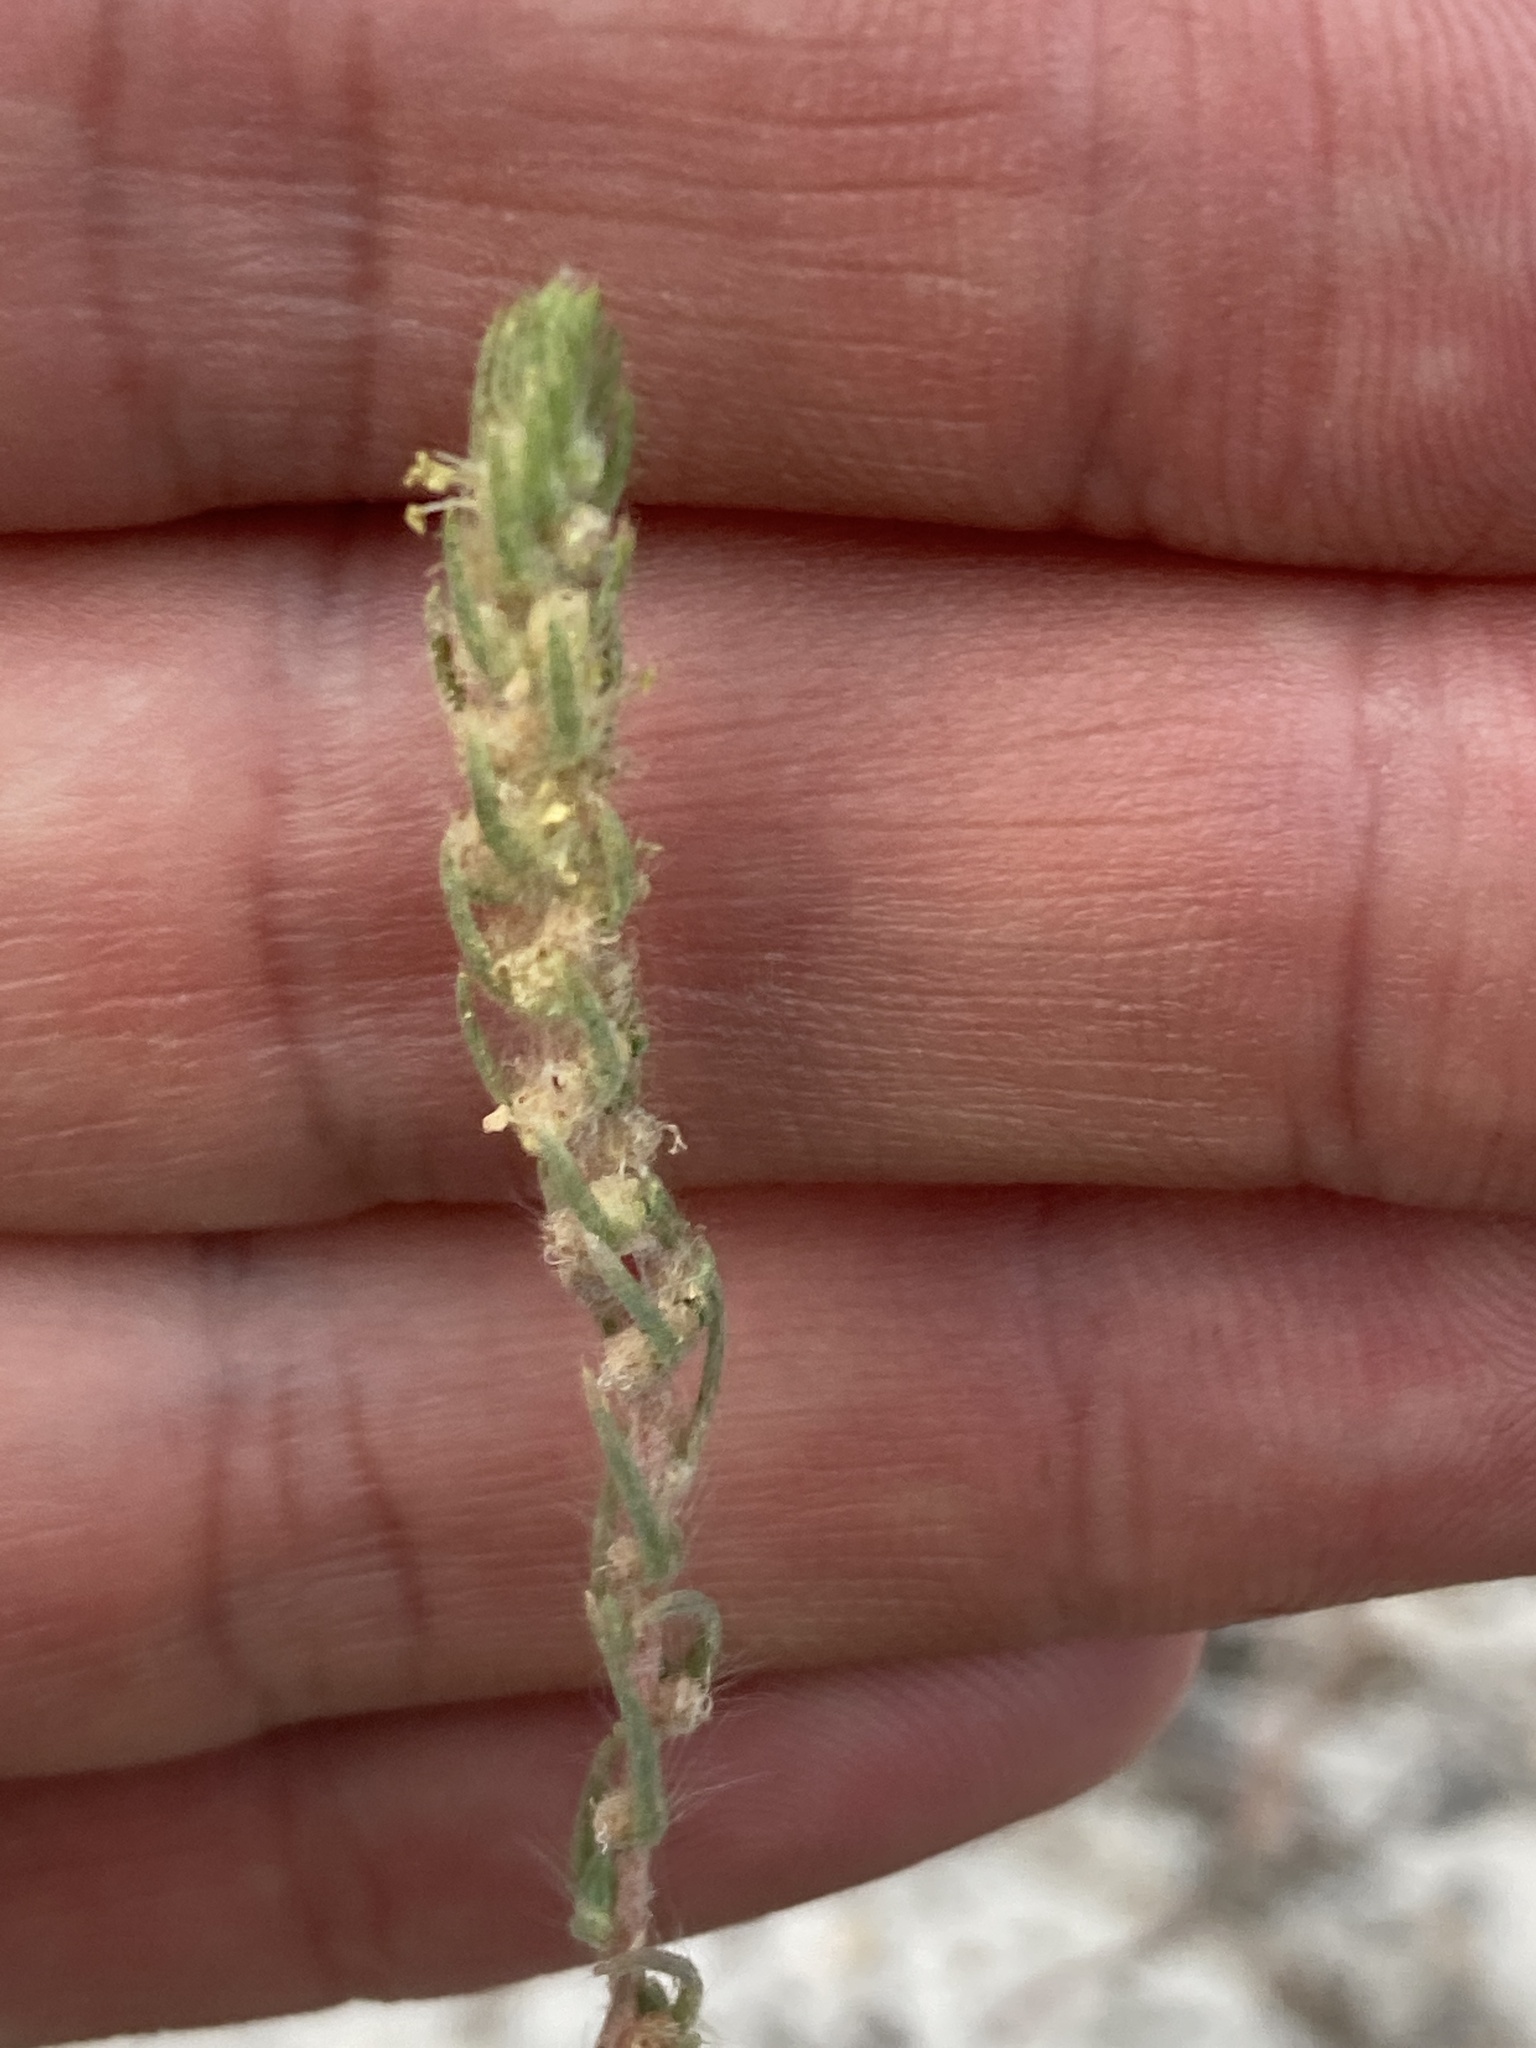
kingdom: Plantae
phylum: Tracheophyta
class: Magnoliopsida
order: Caryophyllales
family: Amaranthaceae
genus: Bassia
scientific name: Bassia laniflora
